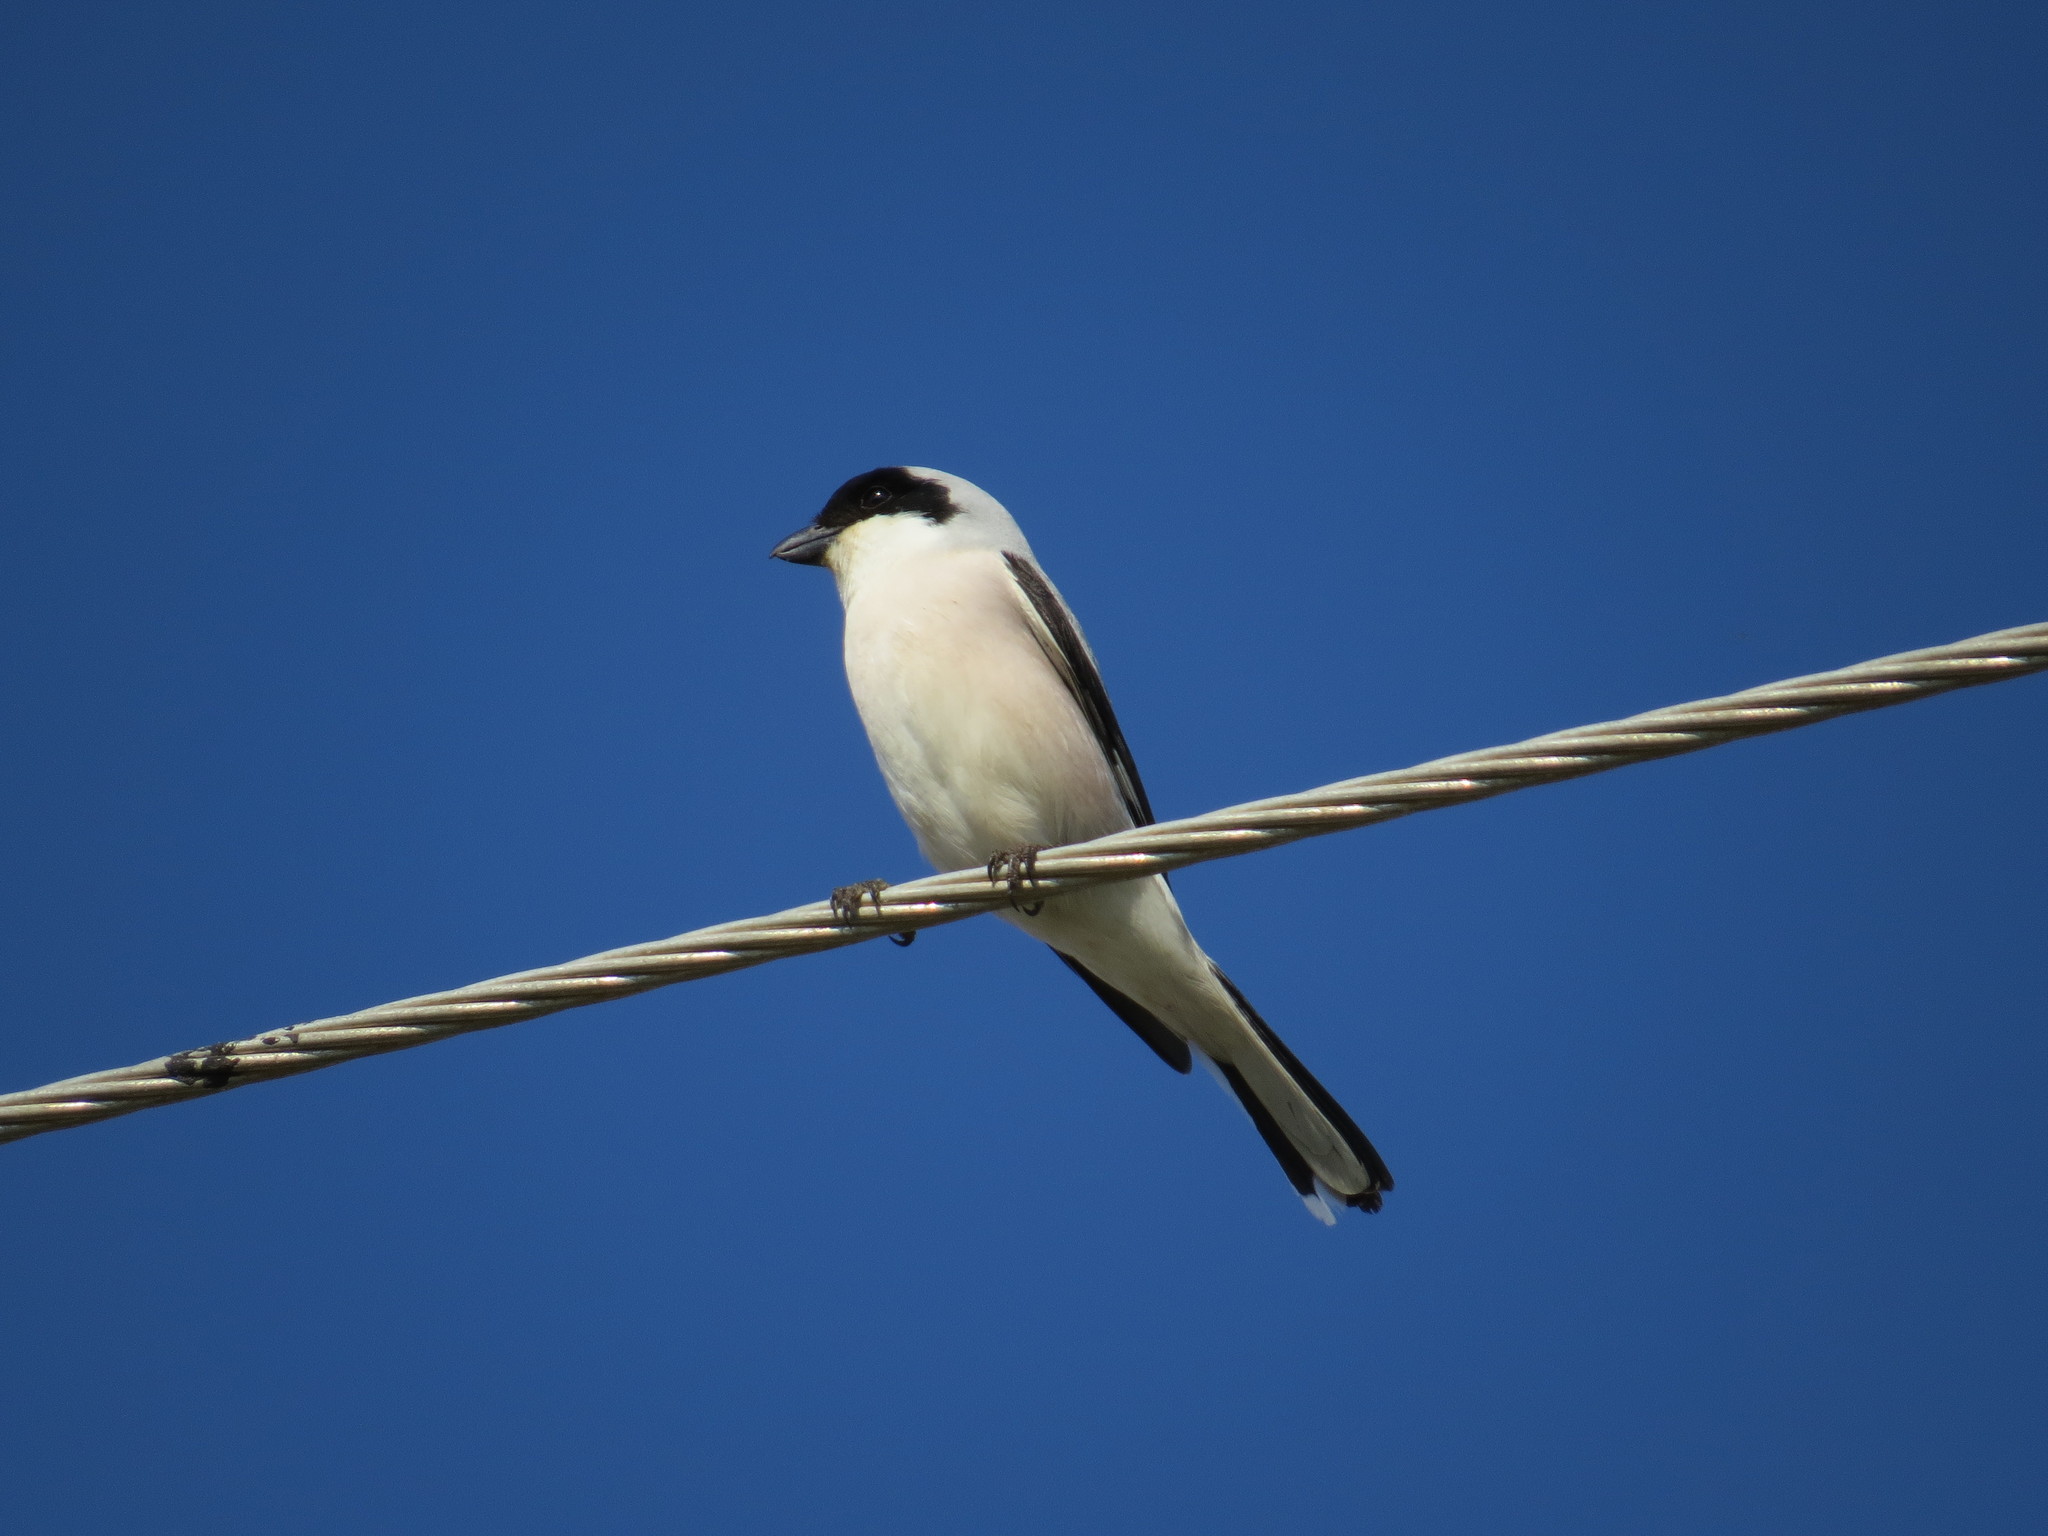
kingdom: Animalia
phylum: Chordata
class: Aves
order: Passeriformes
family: Laniidae
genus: Lanius
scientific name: Lanius minor
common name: Lesser grey shrike
